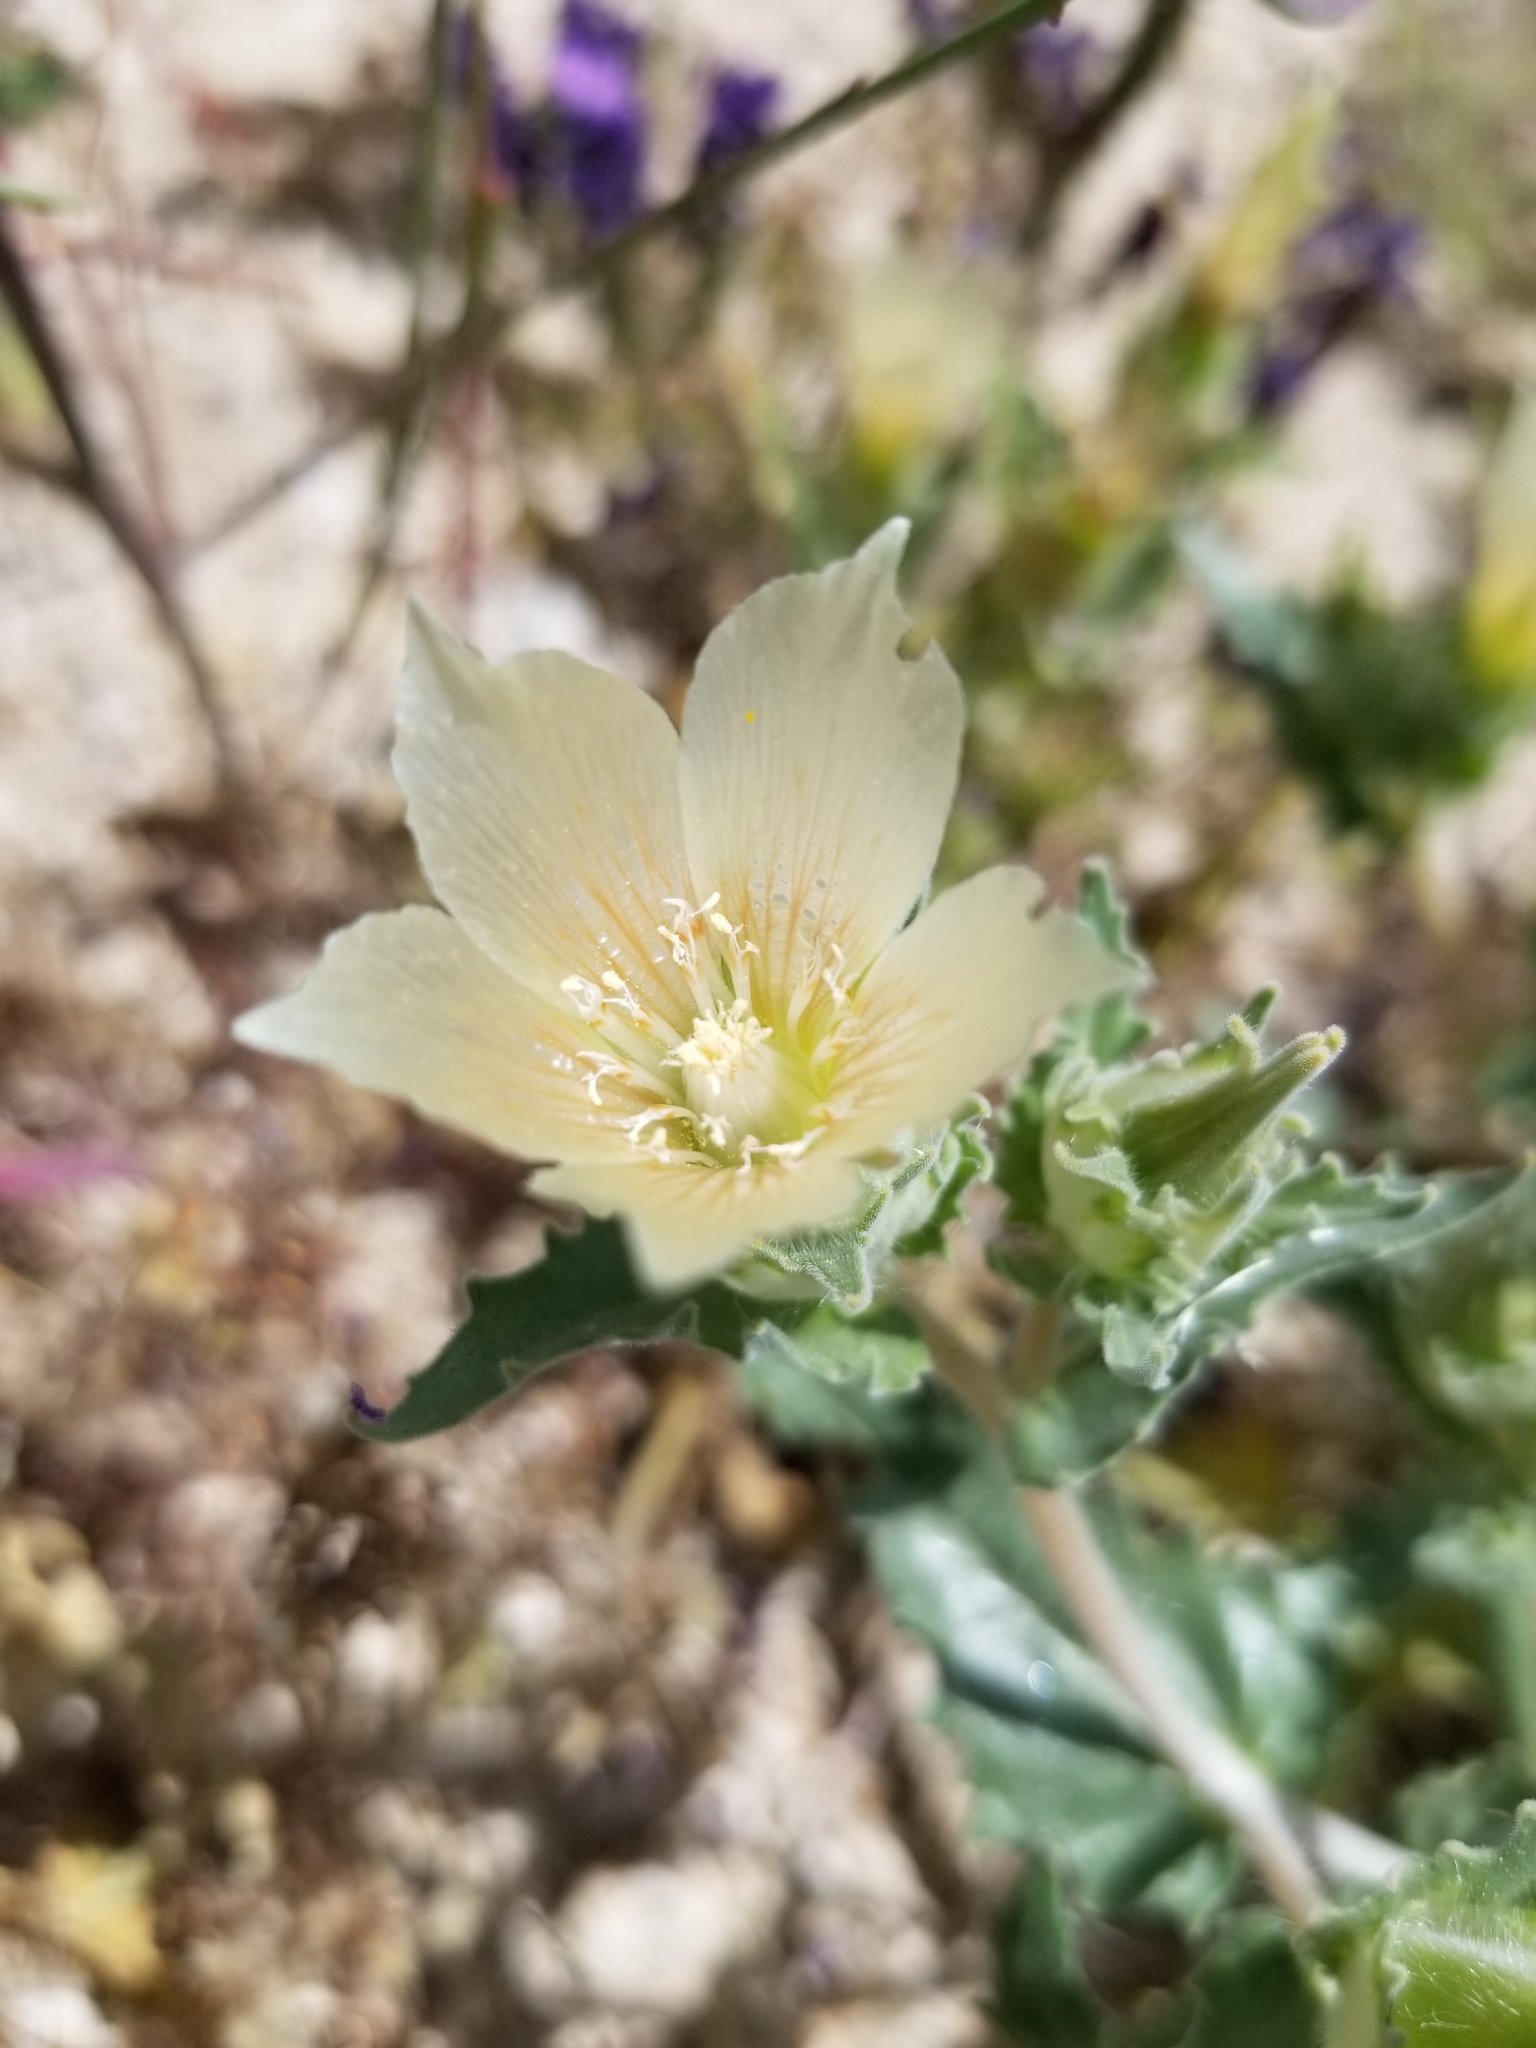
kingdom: Plantae
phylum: Tracheophyta
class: Magnoliopsida
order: Cornales
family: Loasaceae
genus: Mentzelia
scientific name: Mentzelia involucrata
